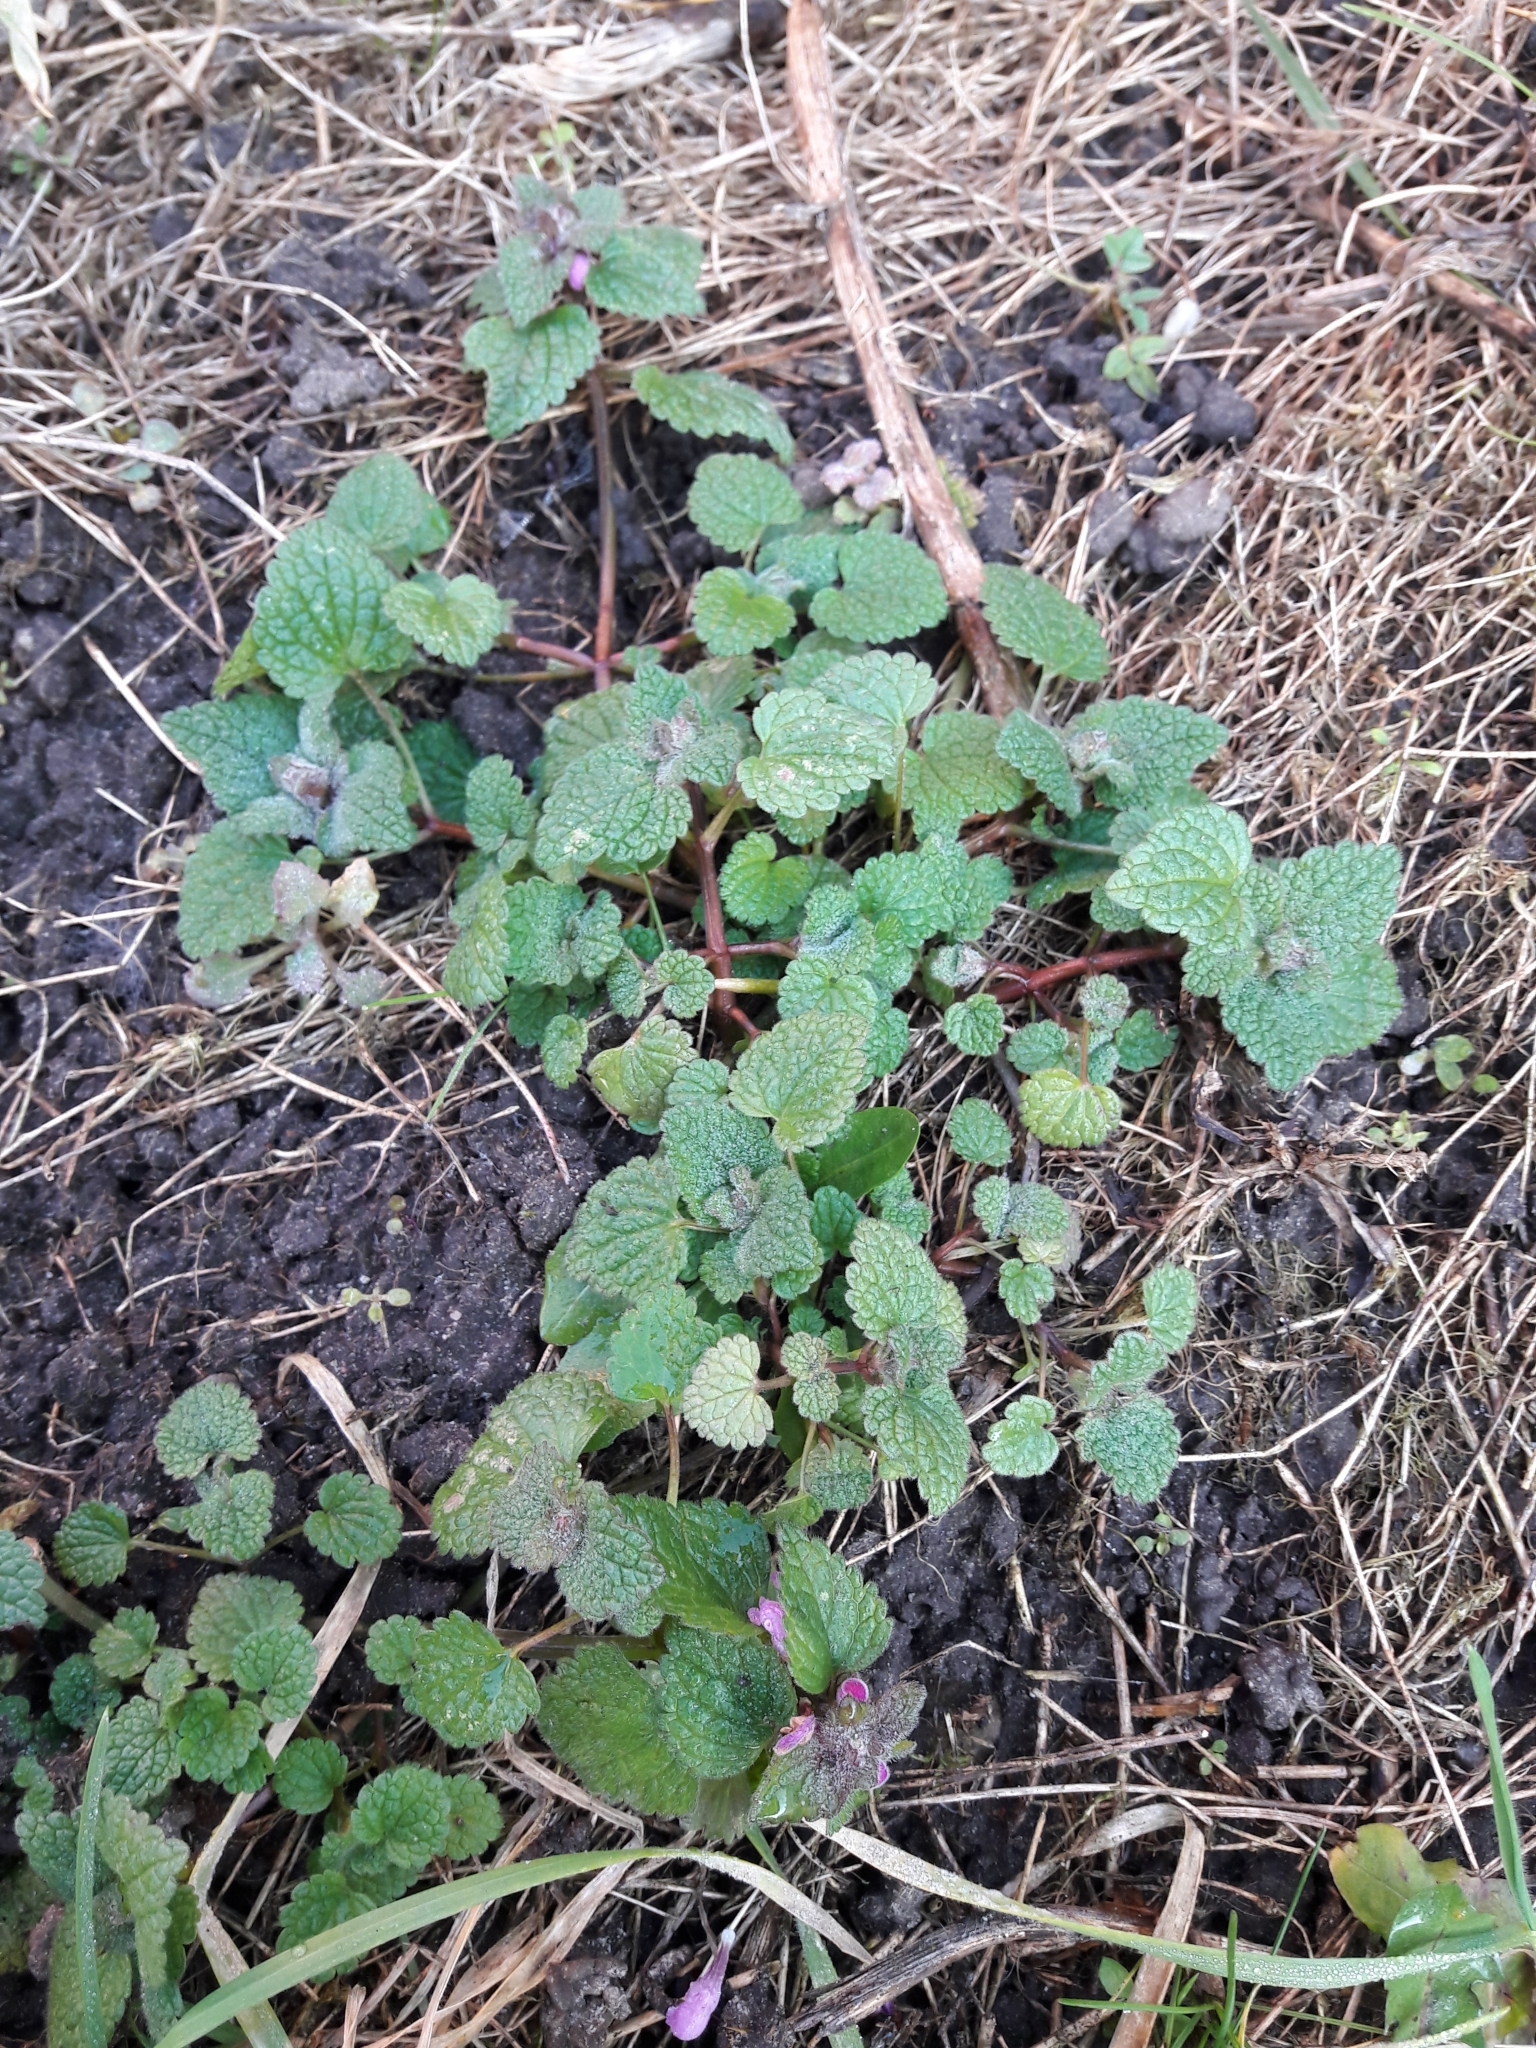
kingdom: Plantae
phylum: Tracheophyta
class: Magnoliopsida
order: Lamiales
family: Lamiaceae
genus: Lamium
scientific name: Lamium purpureum
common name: Red dead-nettle
